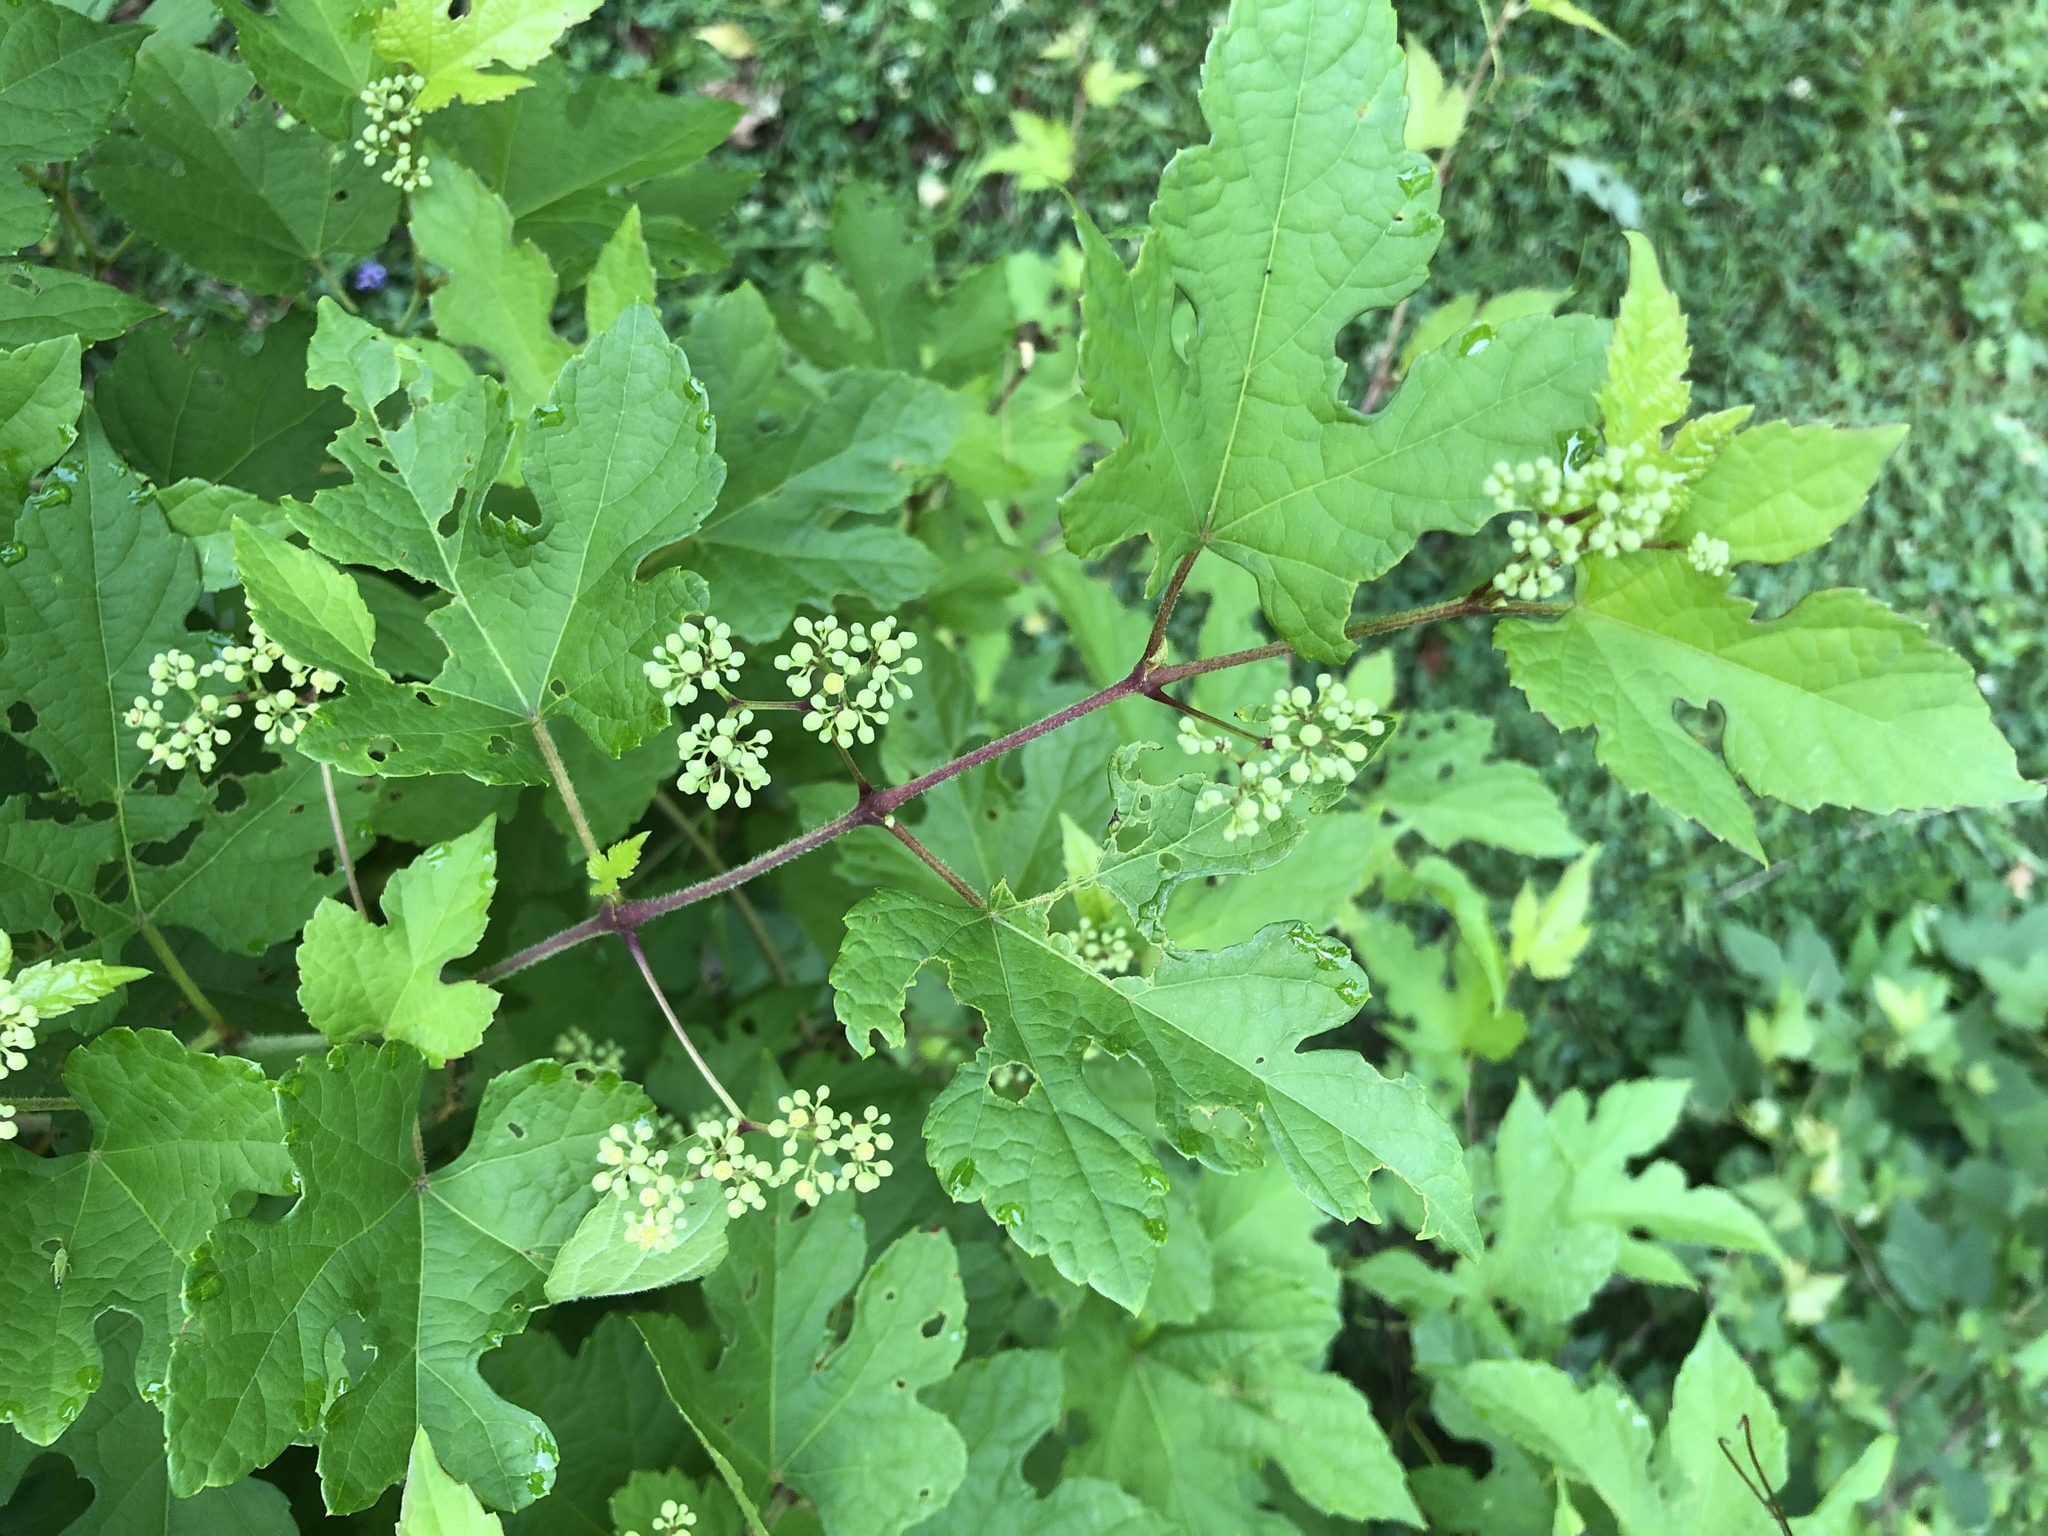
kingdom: Plantae
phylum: Tracheophyta
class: Magnoliopsida
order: Vitales
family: Vitaceae
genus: Ampelopsis
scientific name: Ampelopsis glandulosa
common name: Amur peppervine
